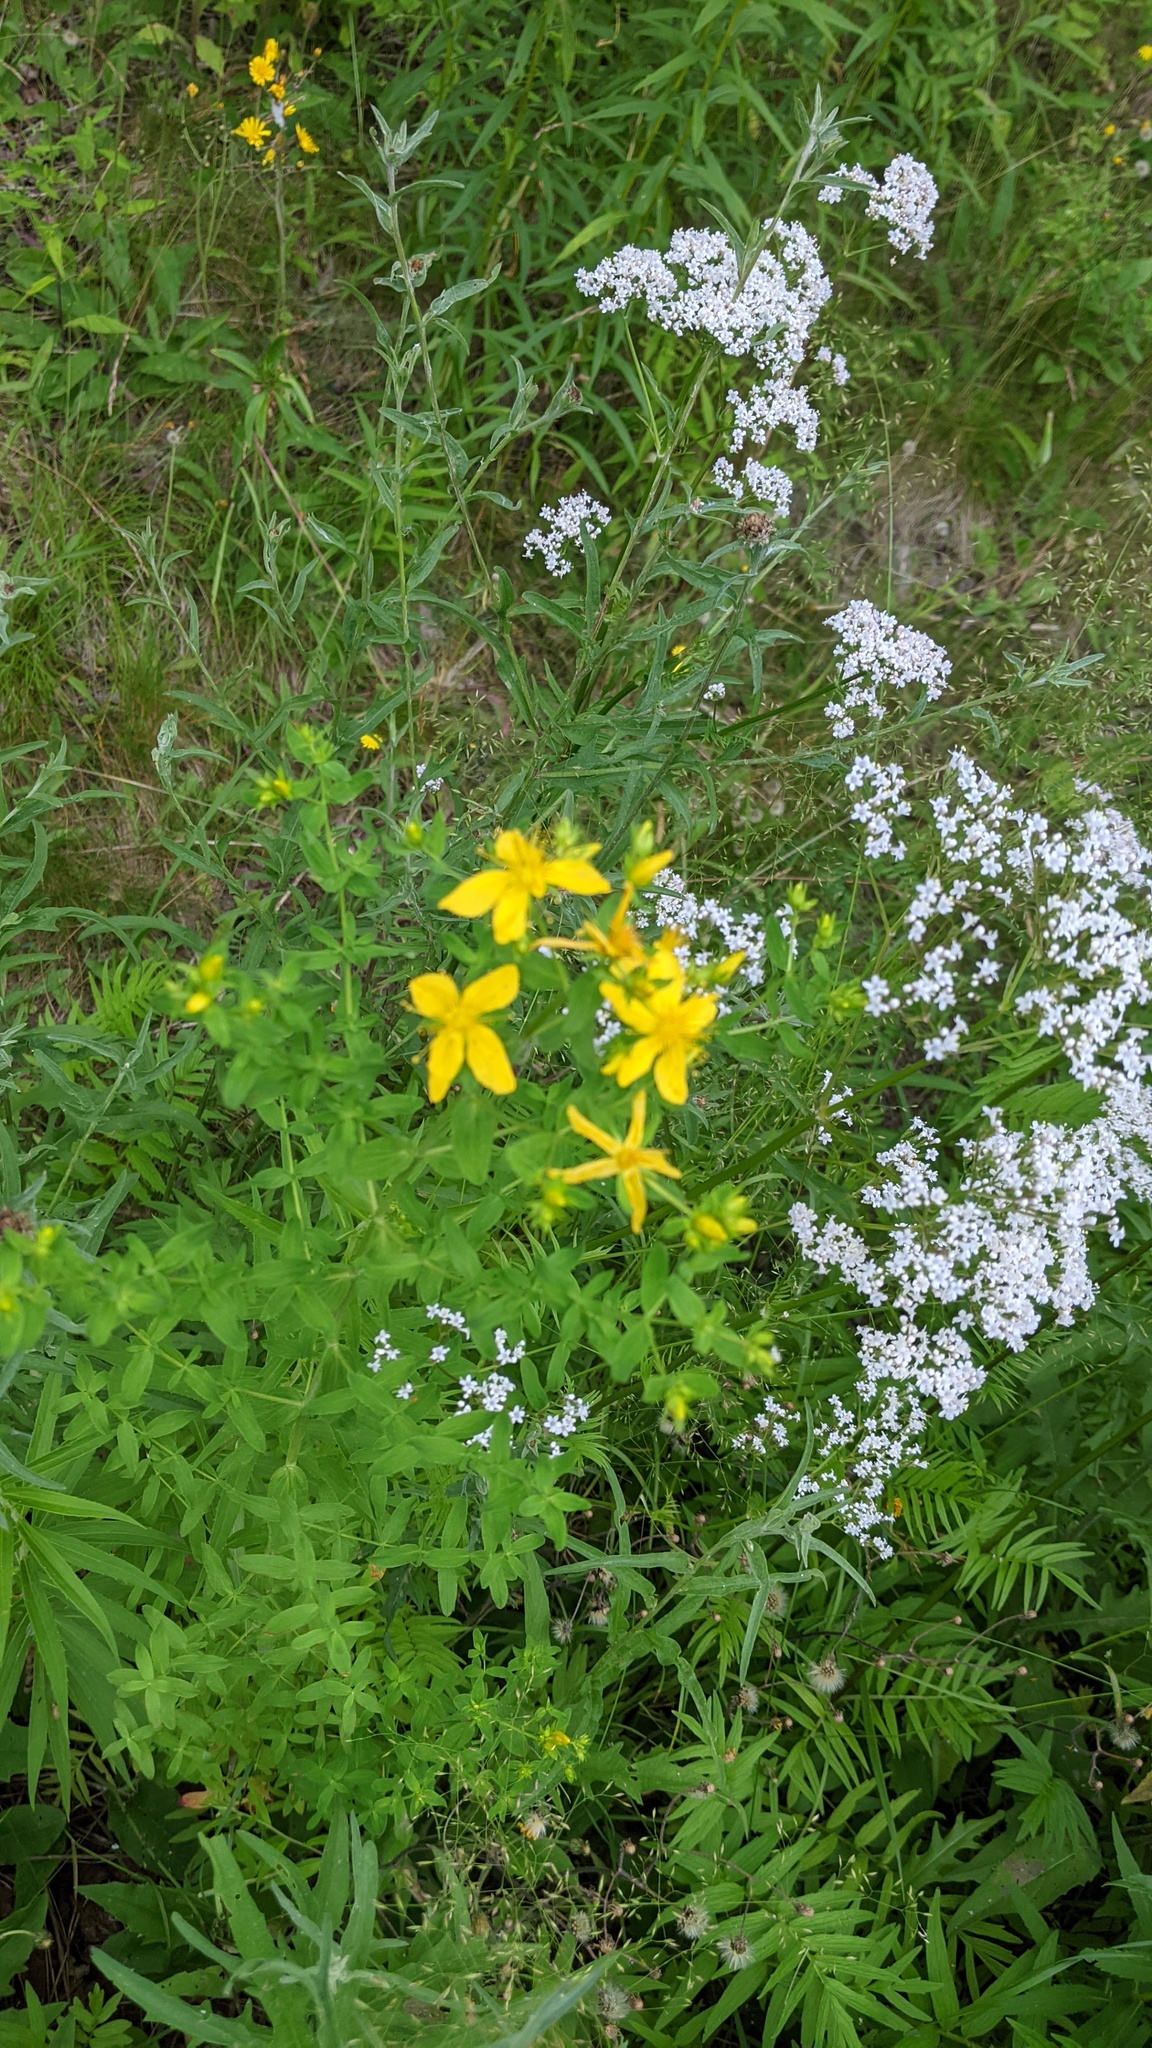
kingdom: Plantae
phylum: Tracheophyta
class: Magnoliopsida
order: Malpighiales
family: Hypericaceae
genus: Hypericum
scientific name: Hypericum perforatum
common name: Common st. johnswort
